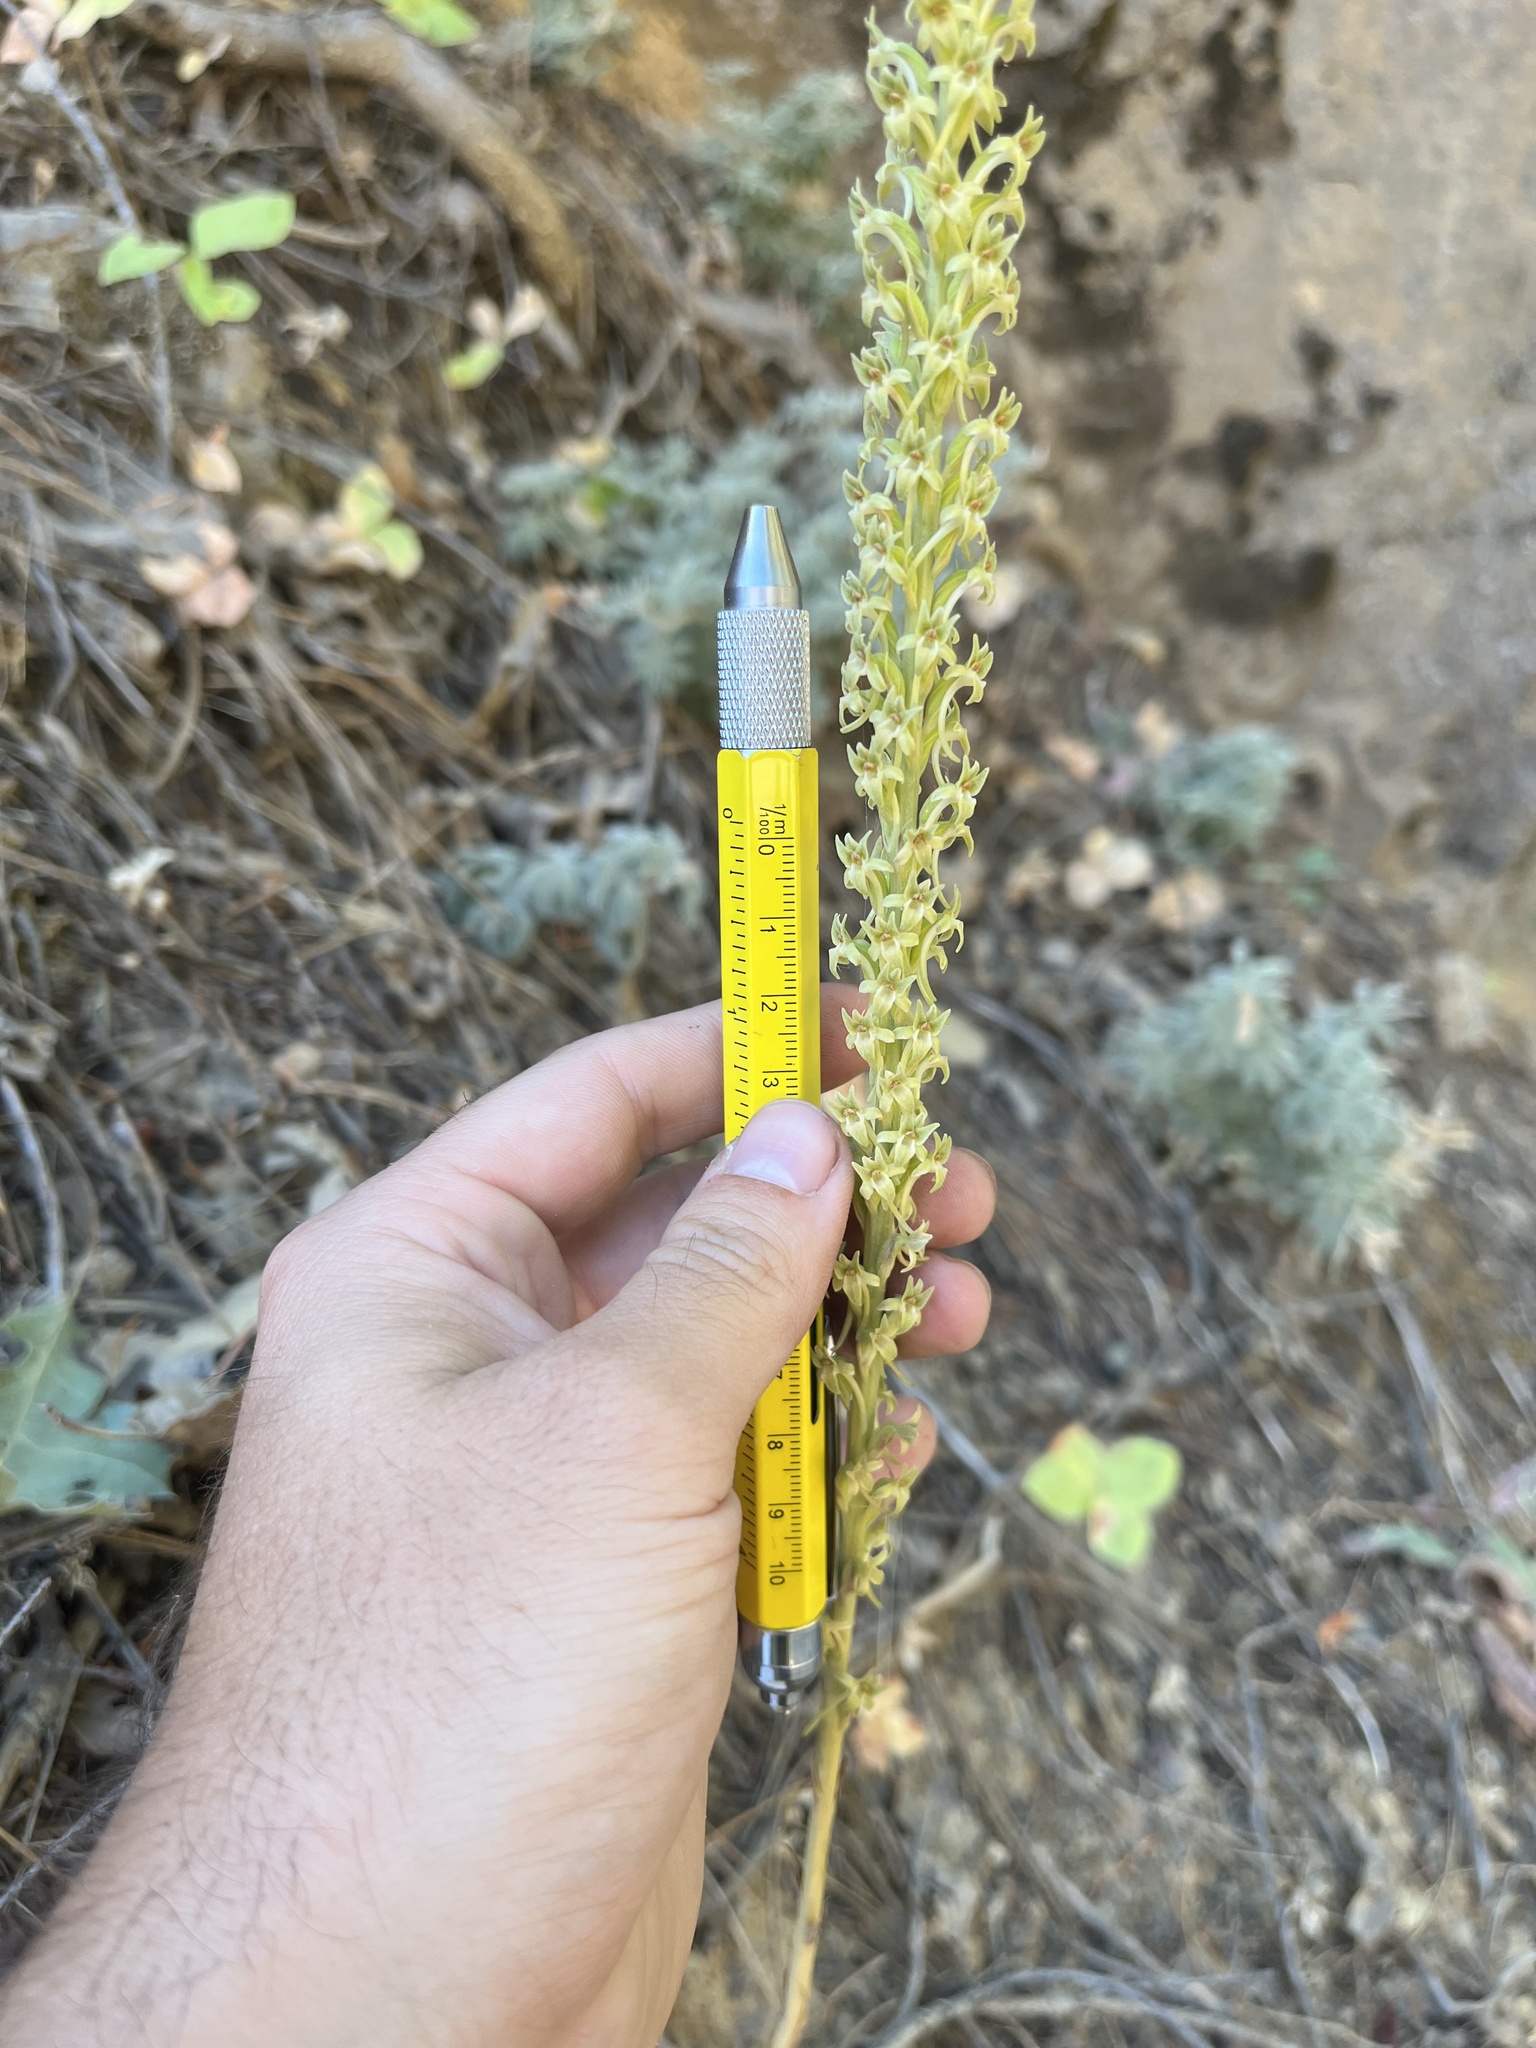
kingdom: Plantae
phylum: Tracheophyta
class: Liliopsida
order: Asparagales
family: Orchidaceae
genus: Platanthera
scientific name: Platanthera elongata
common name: Dense-flowered rein orchid
